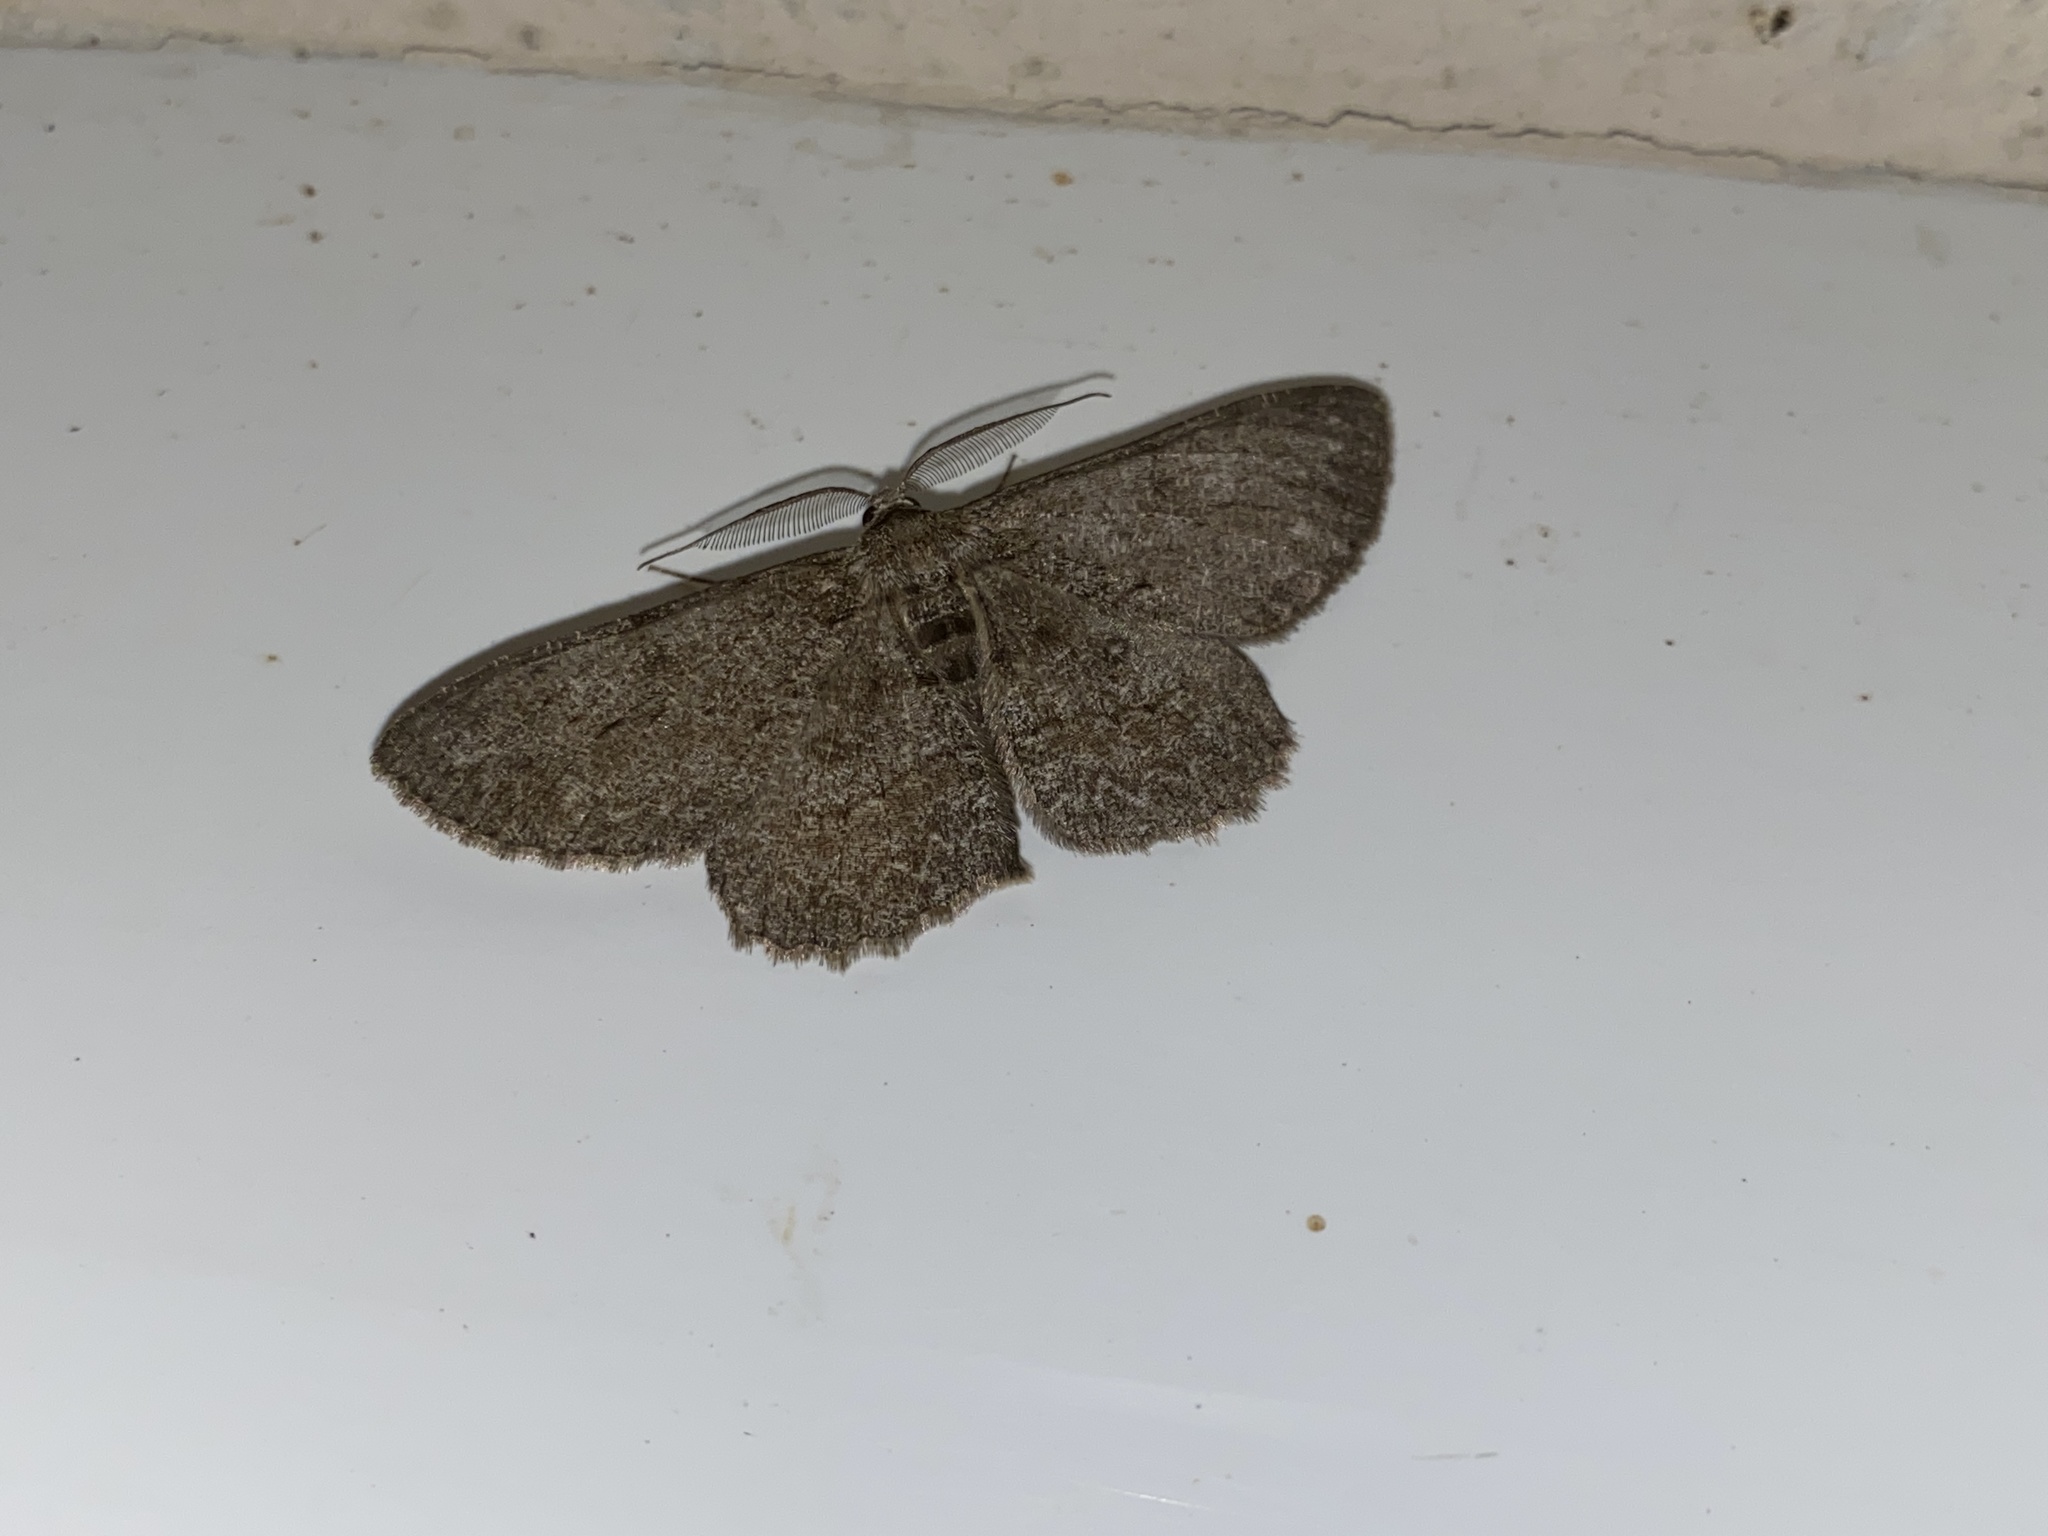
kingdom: Animalia
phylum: Arthropoda
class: Insecta
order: Lepidoptera
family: Geometridae
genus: Hypomecis
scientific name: Hypomecis punctinalis
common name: Pale oak beauty
